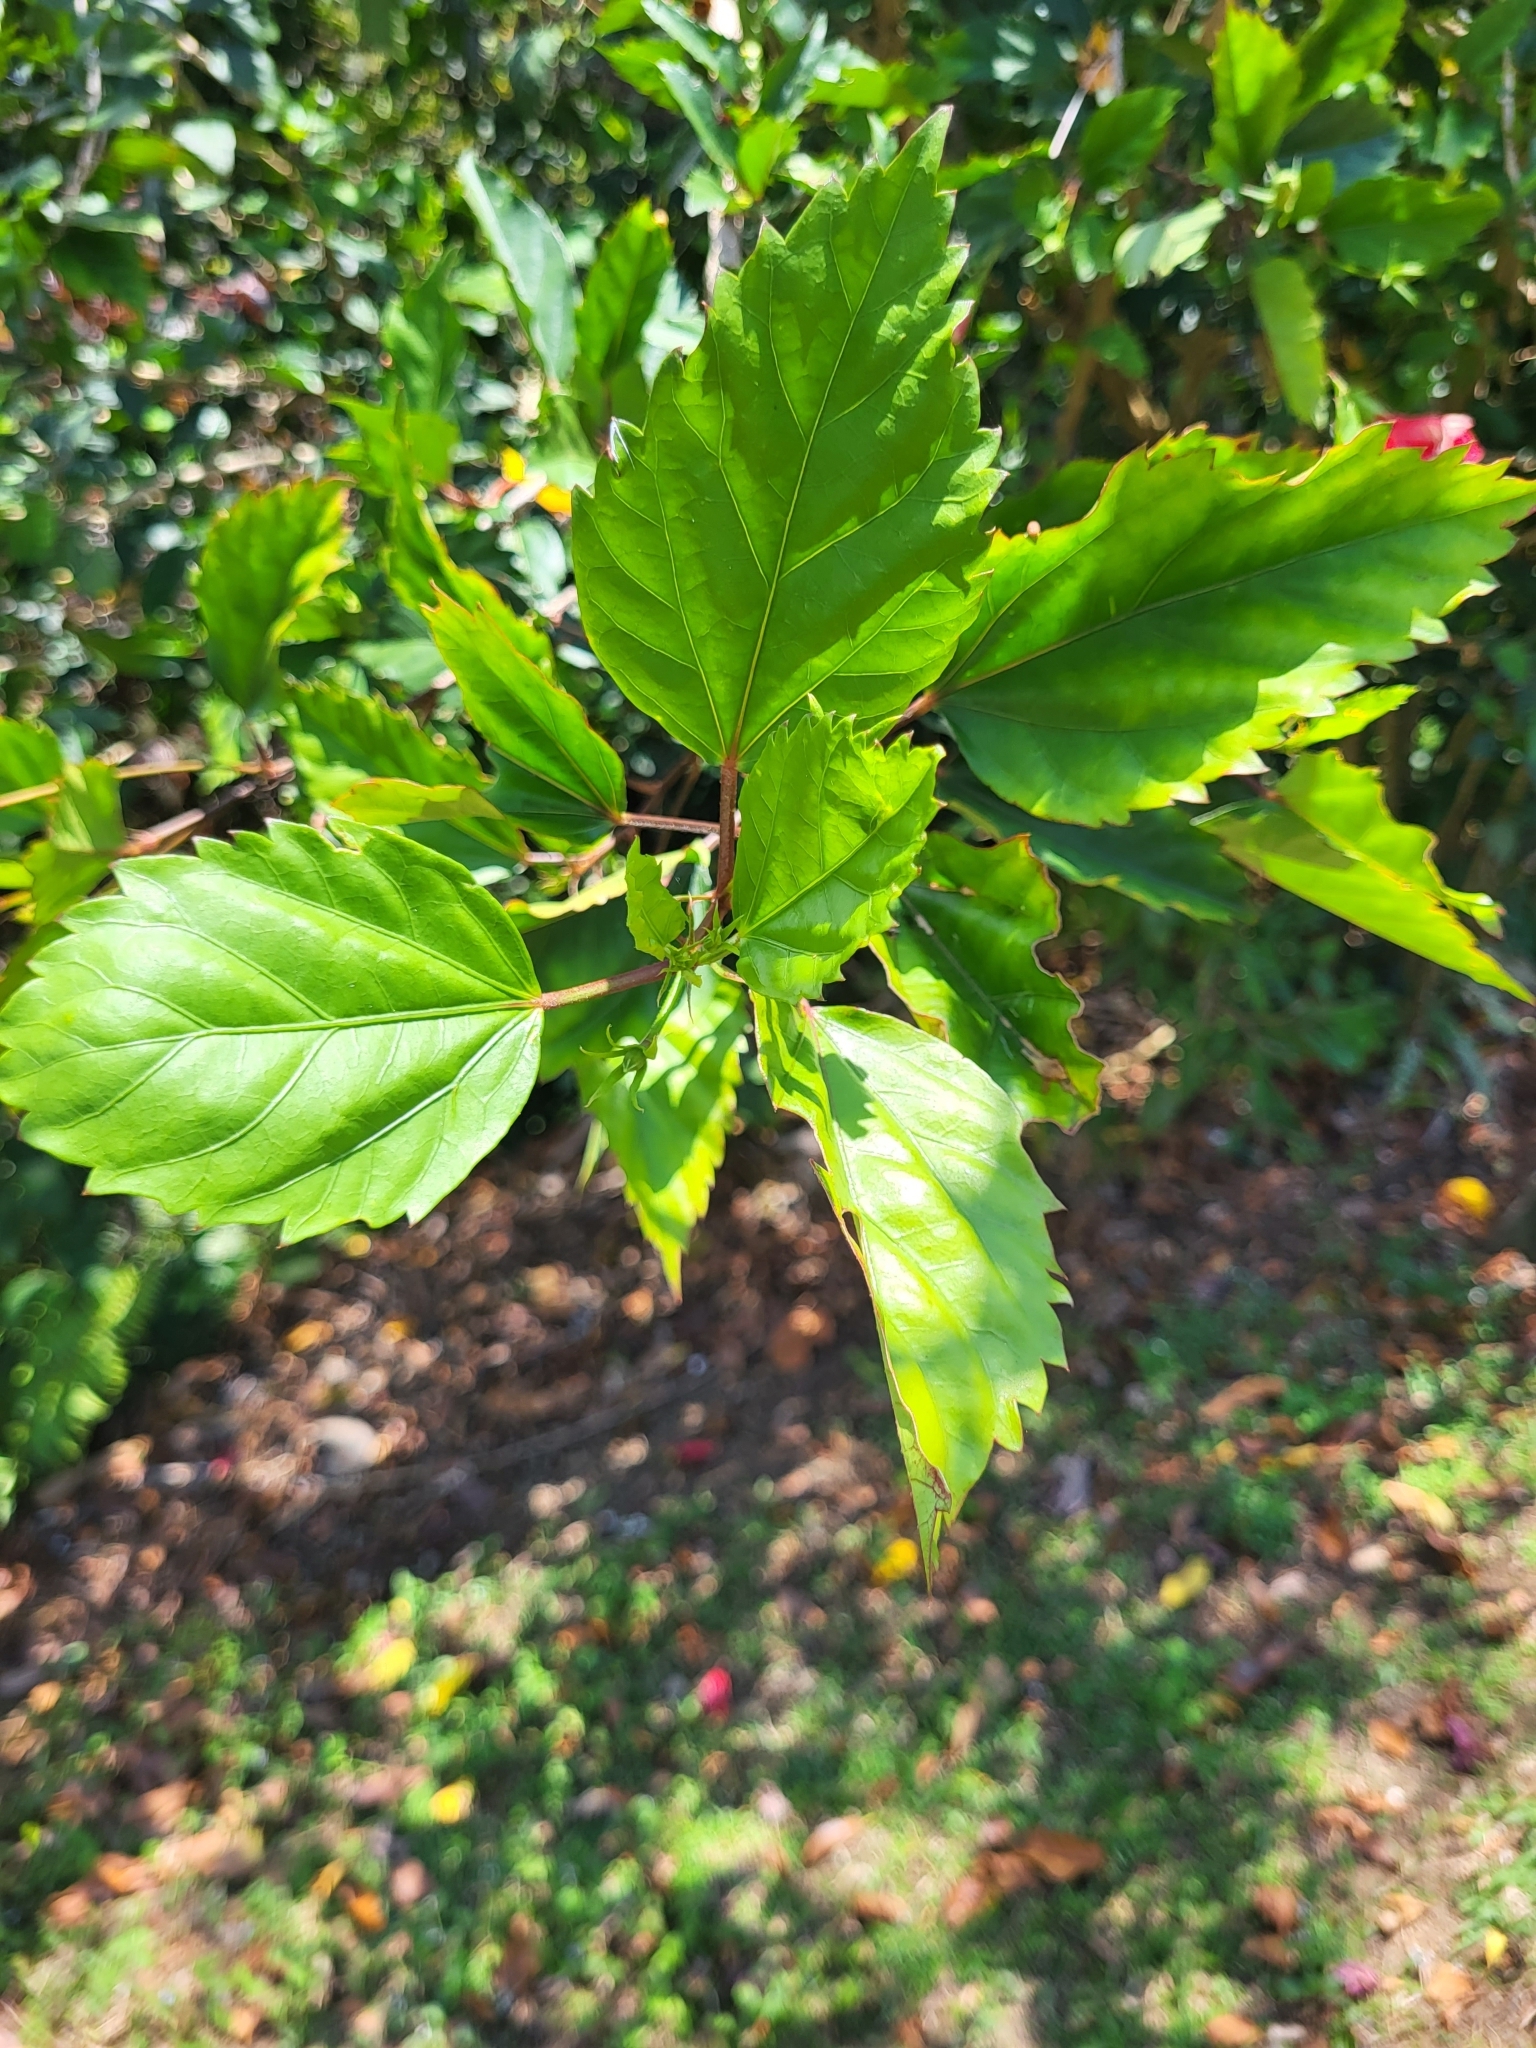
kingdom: Plantae
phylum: Tracheophyta
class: Magnoliopsida
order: Malvales
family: Malvaceae
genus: Hibiscus
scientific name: Hibiscus archeri
